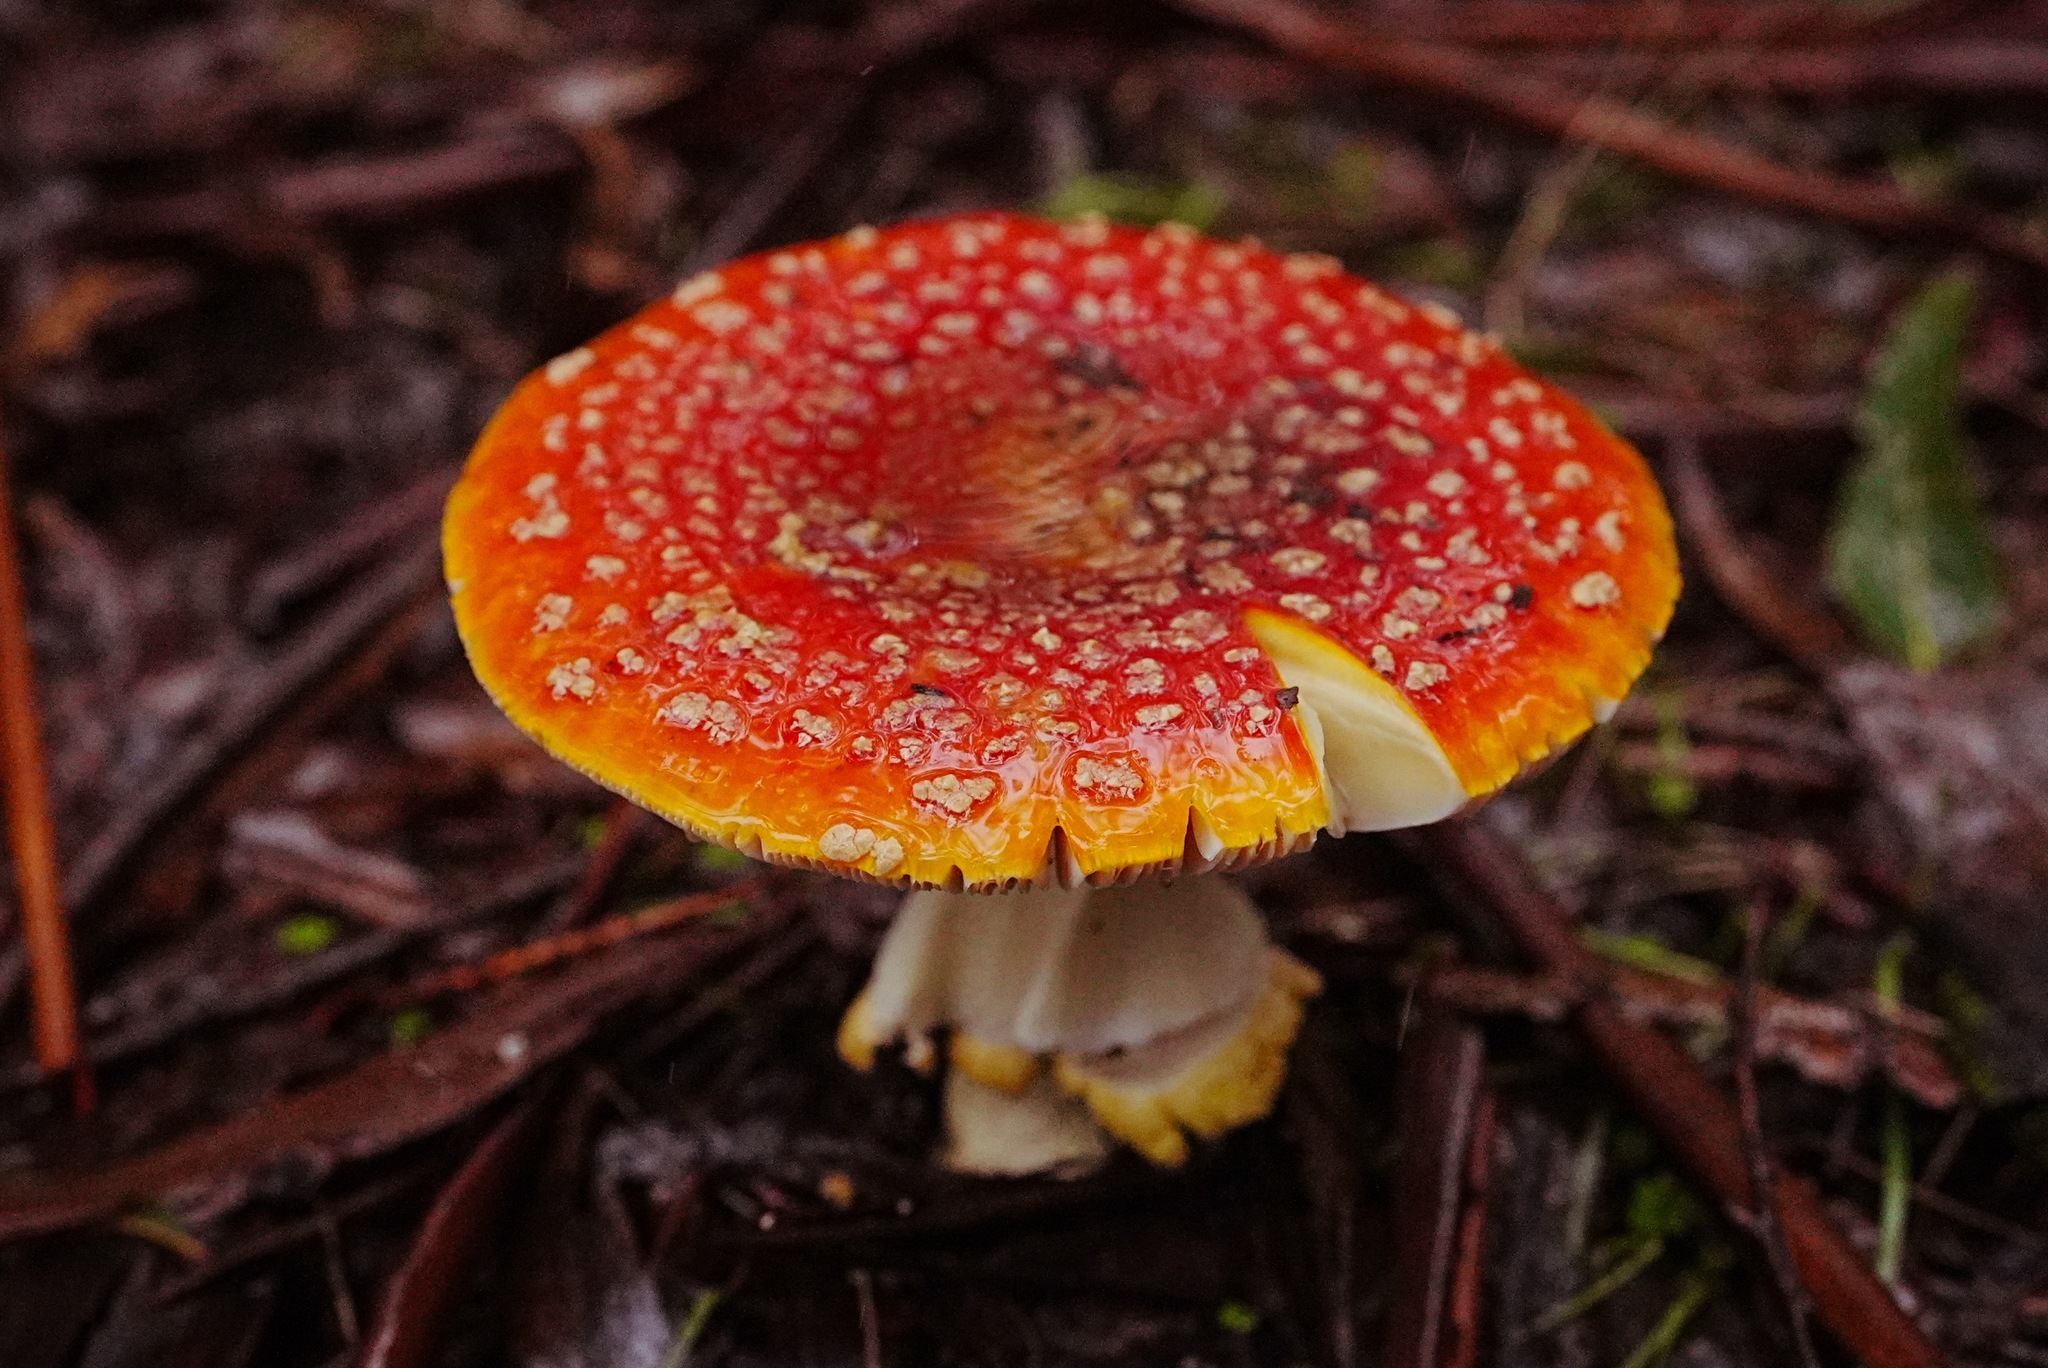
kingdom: Fungi
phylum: Basidiomycota
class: Agaricomycetes
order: Agaricales
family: Amanitaceae
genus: Amanita
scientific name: Amanita muscaria
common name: Fly agaric
